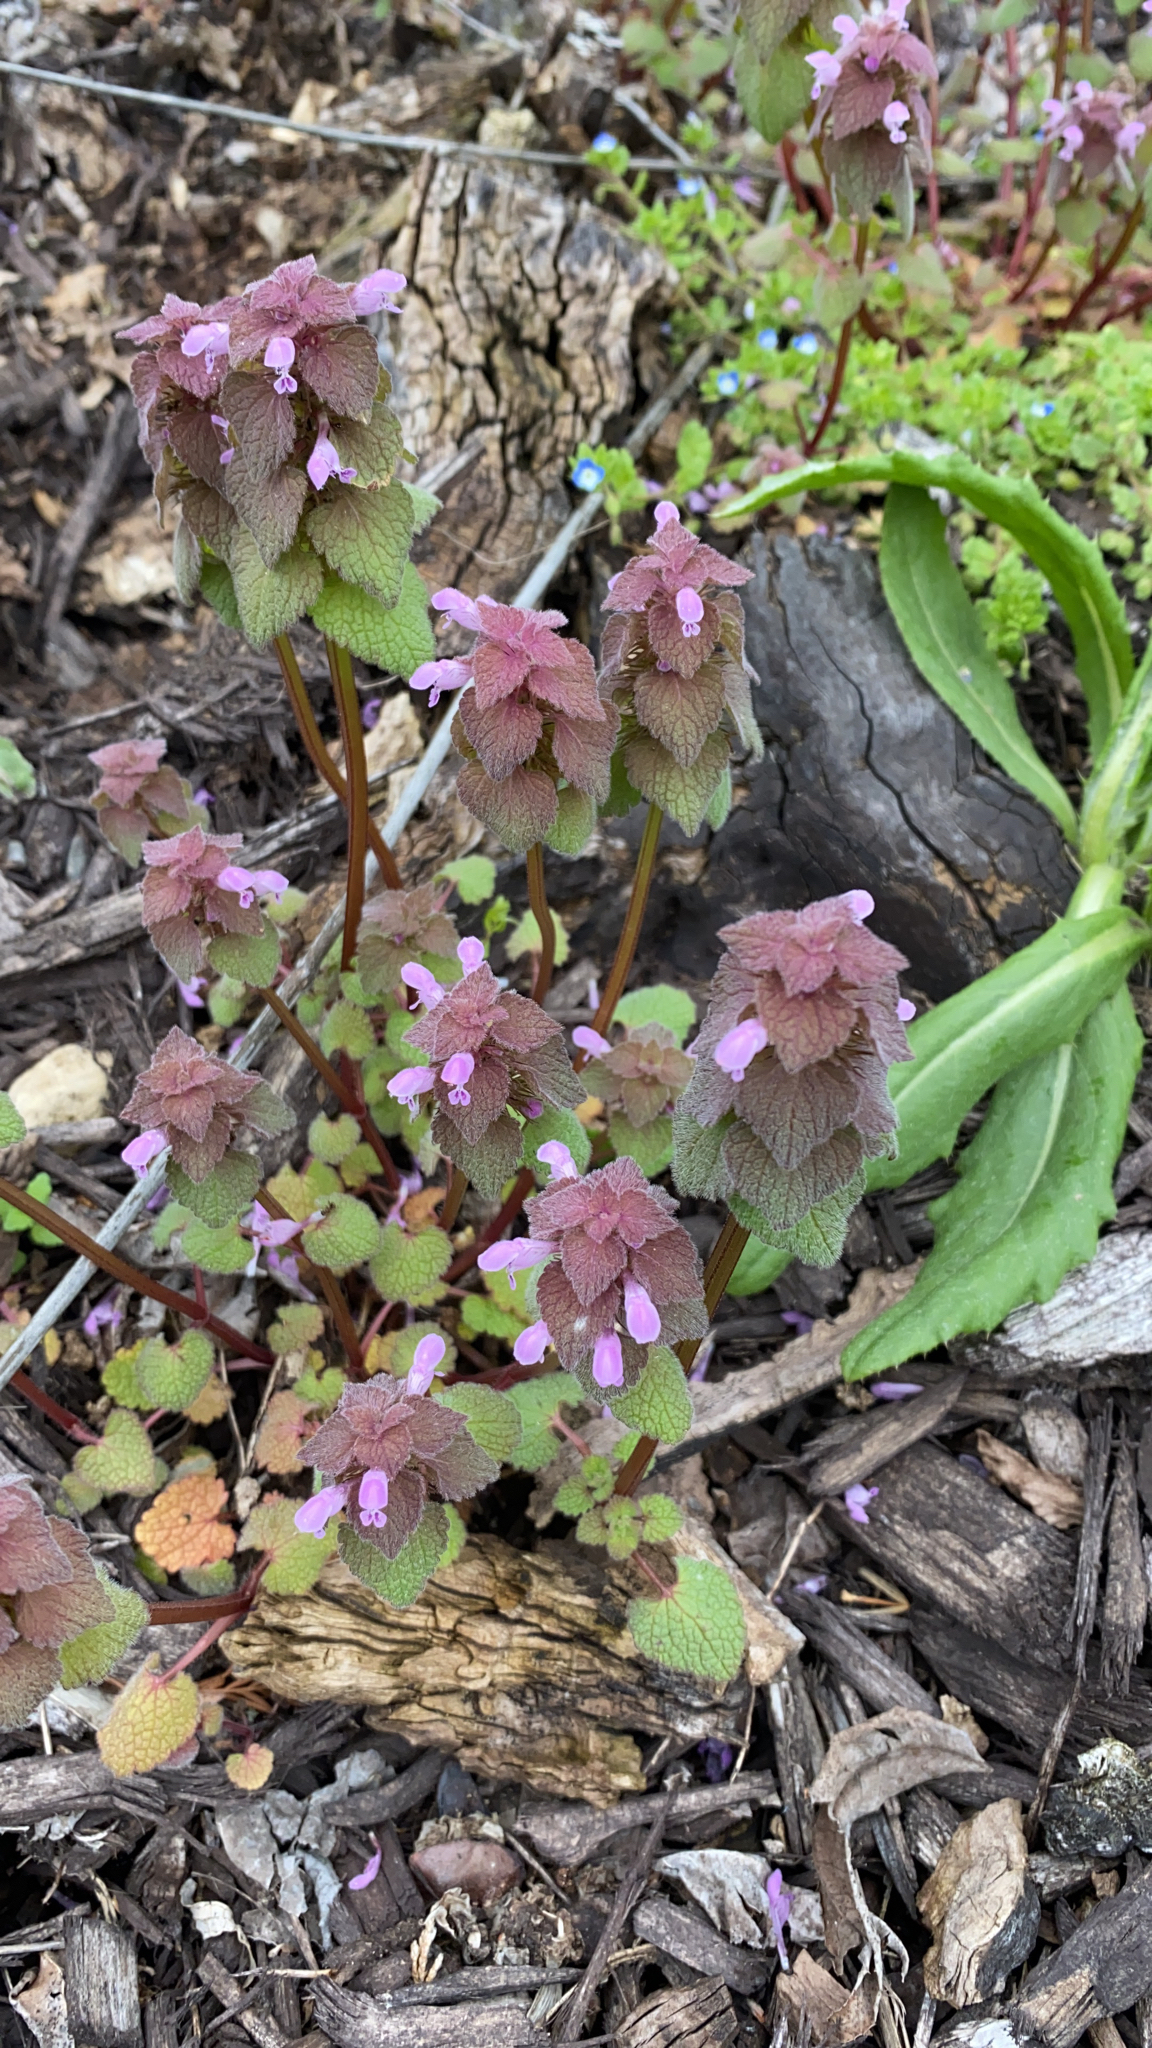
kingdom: Plantae
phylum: Tracheophyta
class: Magnoliopsida
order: Lamiales
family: Lamiaceae
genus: Lamium
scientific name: Lamium purpureum
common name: Red dead-nettle
